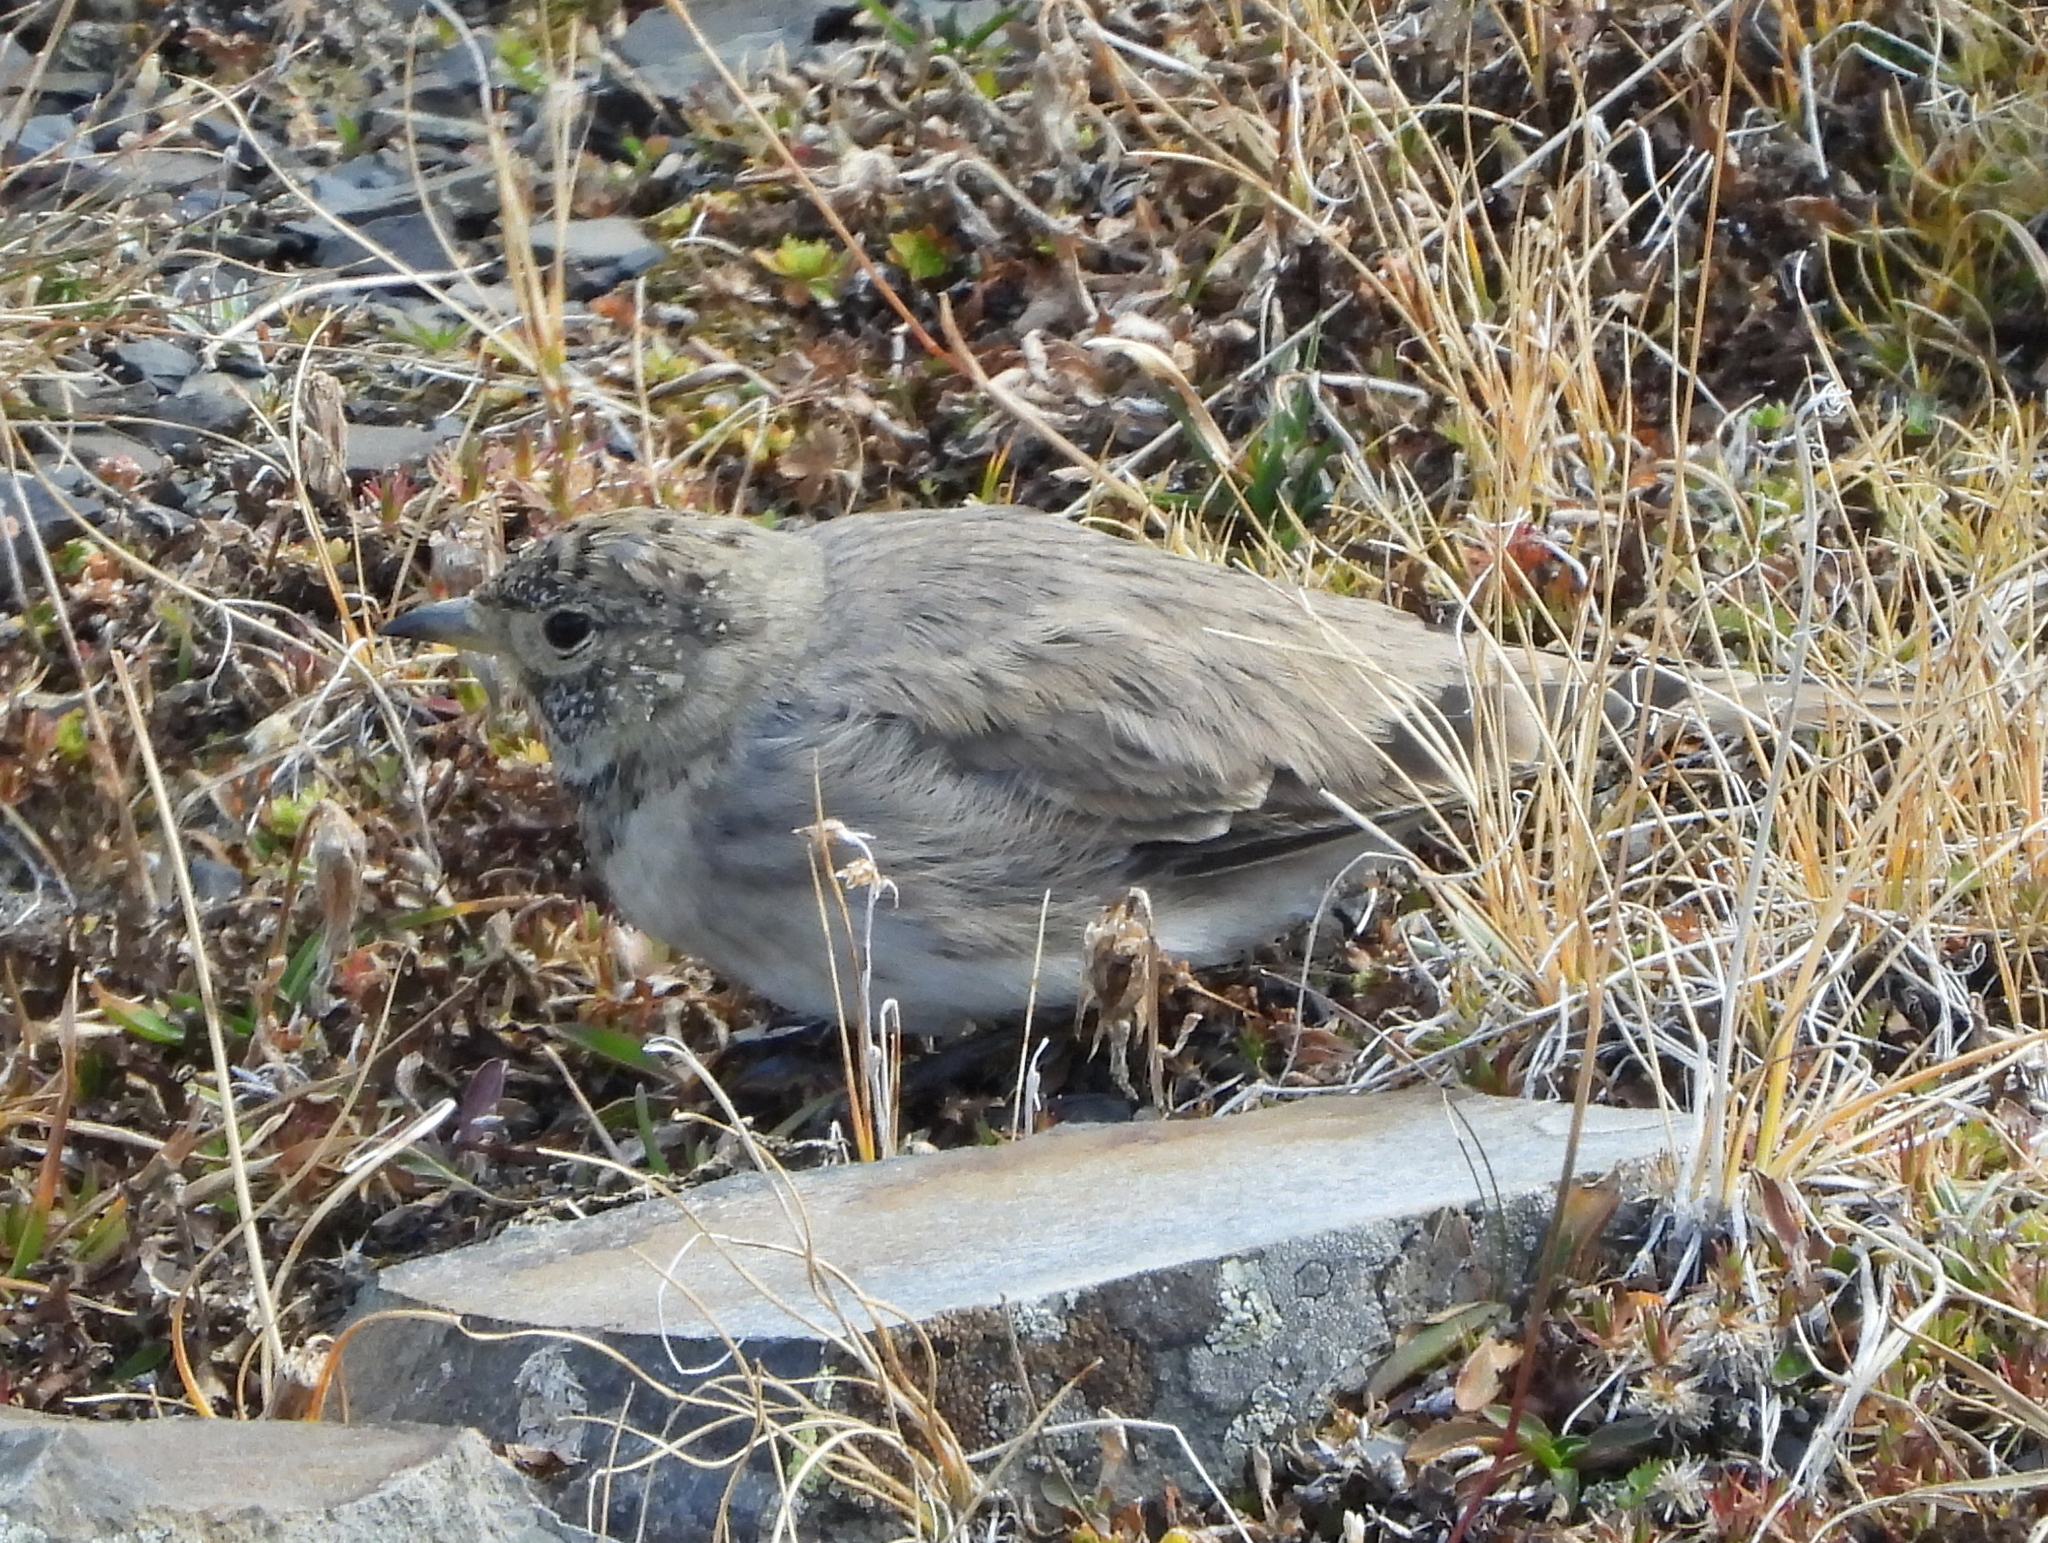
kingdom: Animalia
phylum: Chordata
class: Aves
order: Passeriformes
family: Alaudidae
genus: Eremophila
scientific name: Eremophila alpestris
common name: Horned lark
